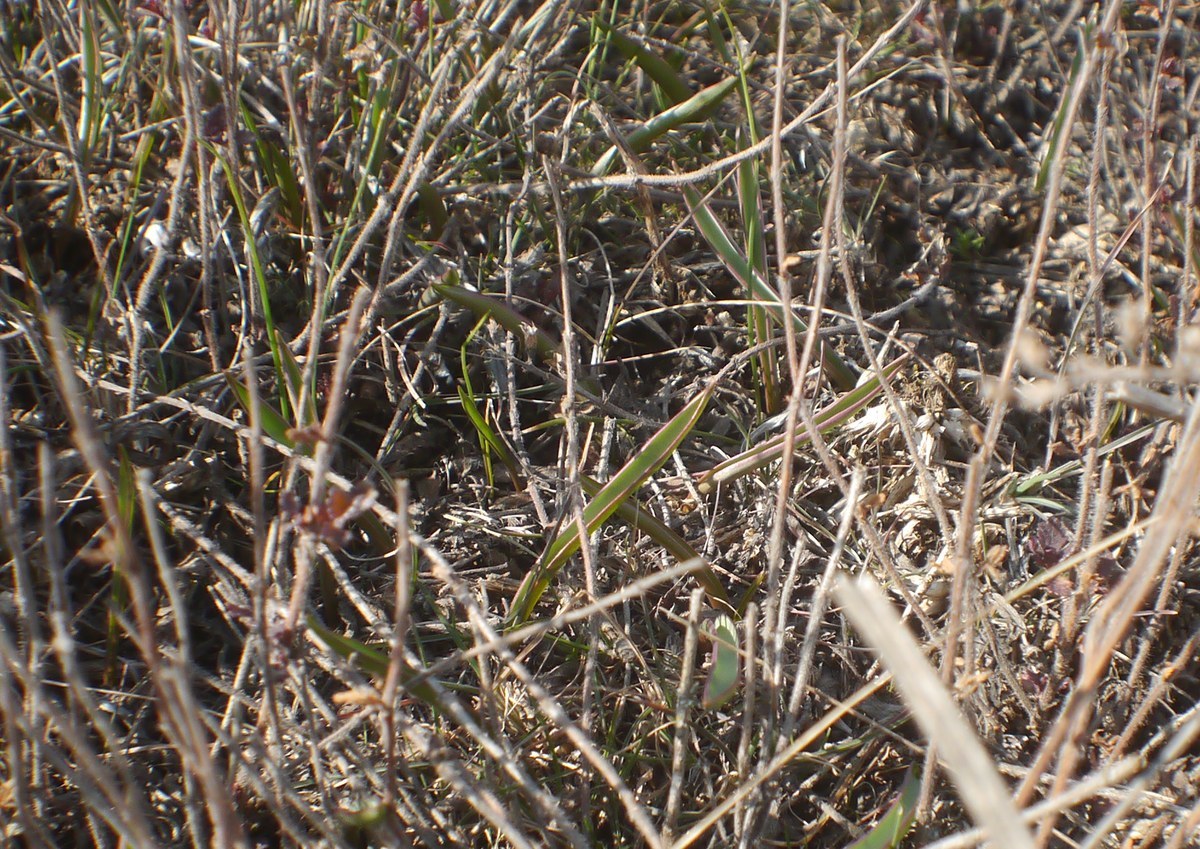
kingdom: Plantae
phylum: Tracheophyta
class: Liliopsida
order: Liliales
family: Liliaceae
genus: Tulipa
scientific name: Tulipa sylvestris
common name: Wild tulip
